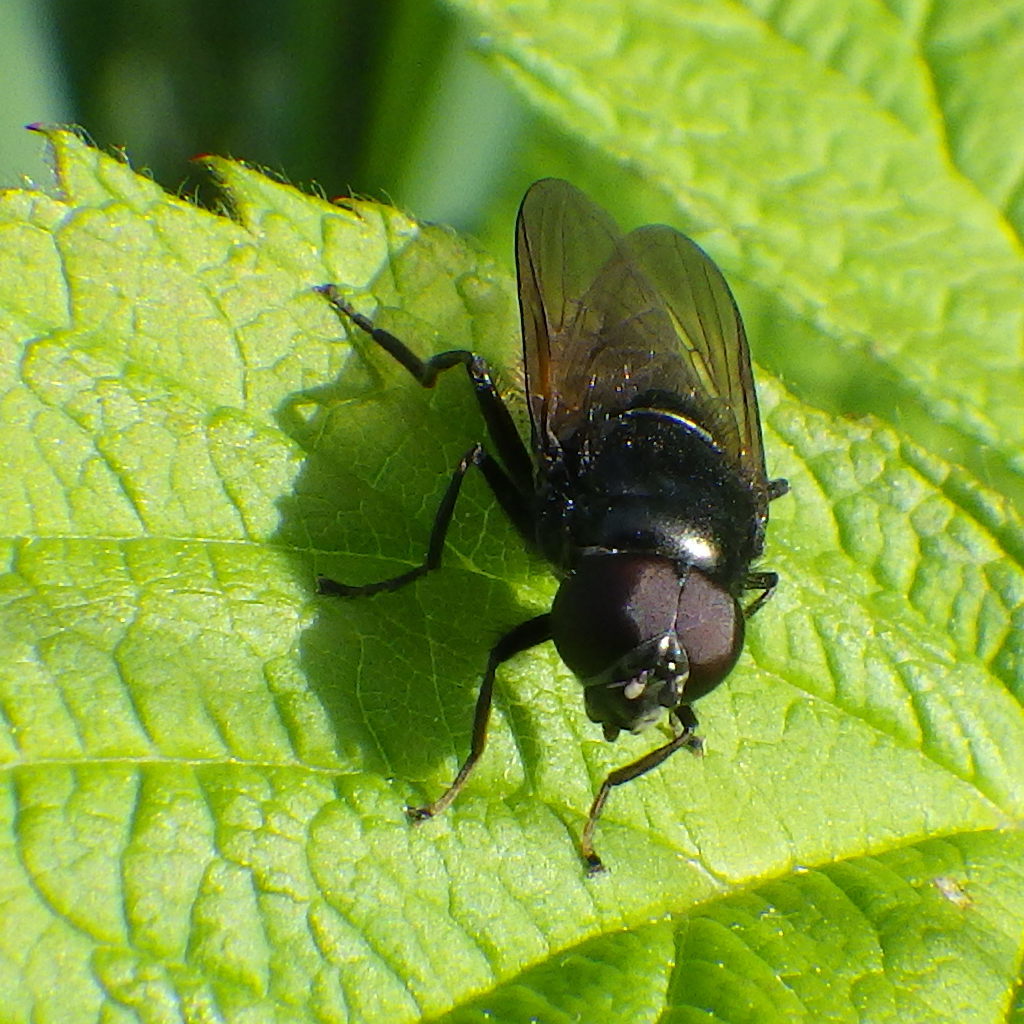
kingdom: Animalia
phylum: Arthropoda
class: Insecta
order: Diptera
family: Syrphidae
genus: Cheilosia
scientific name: Cheilosia albitarsis
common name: Buttercup blacklet
